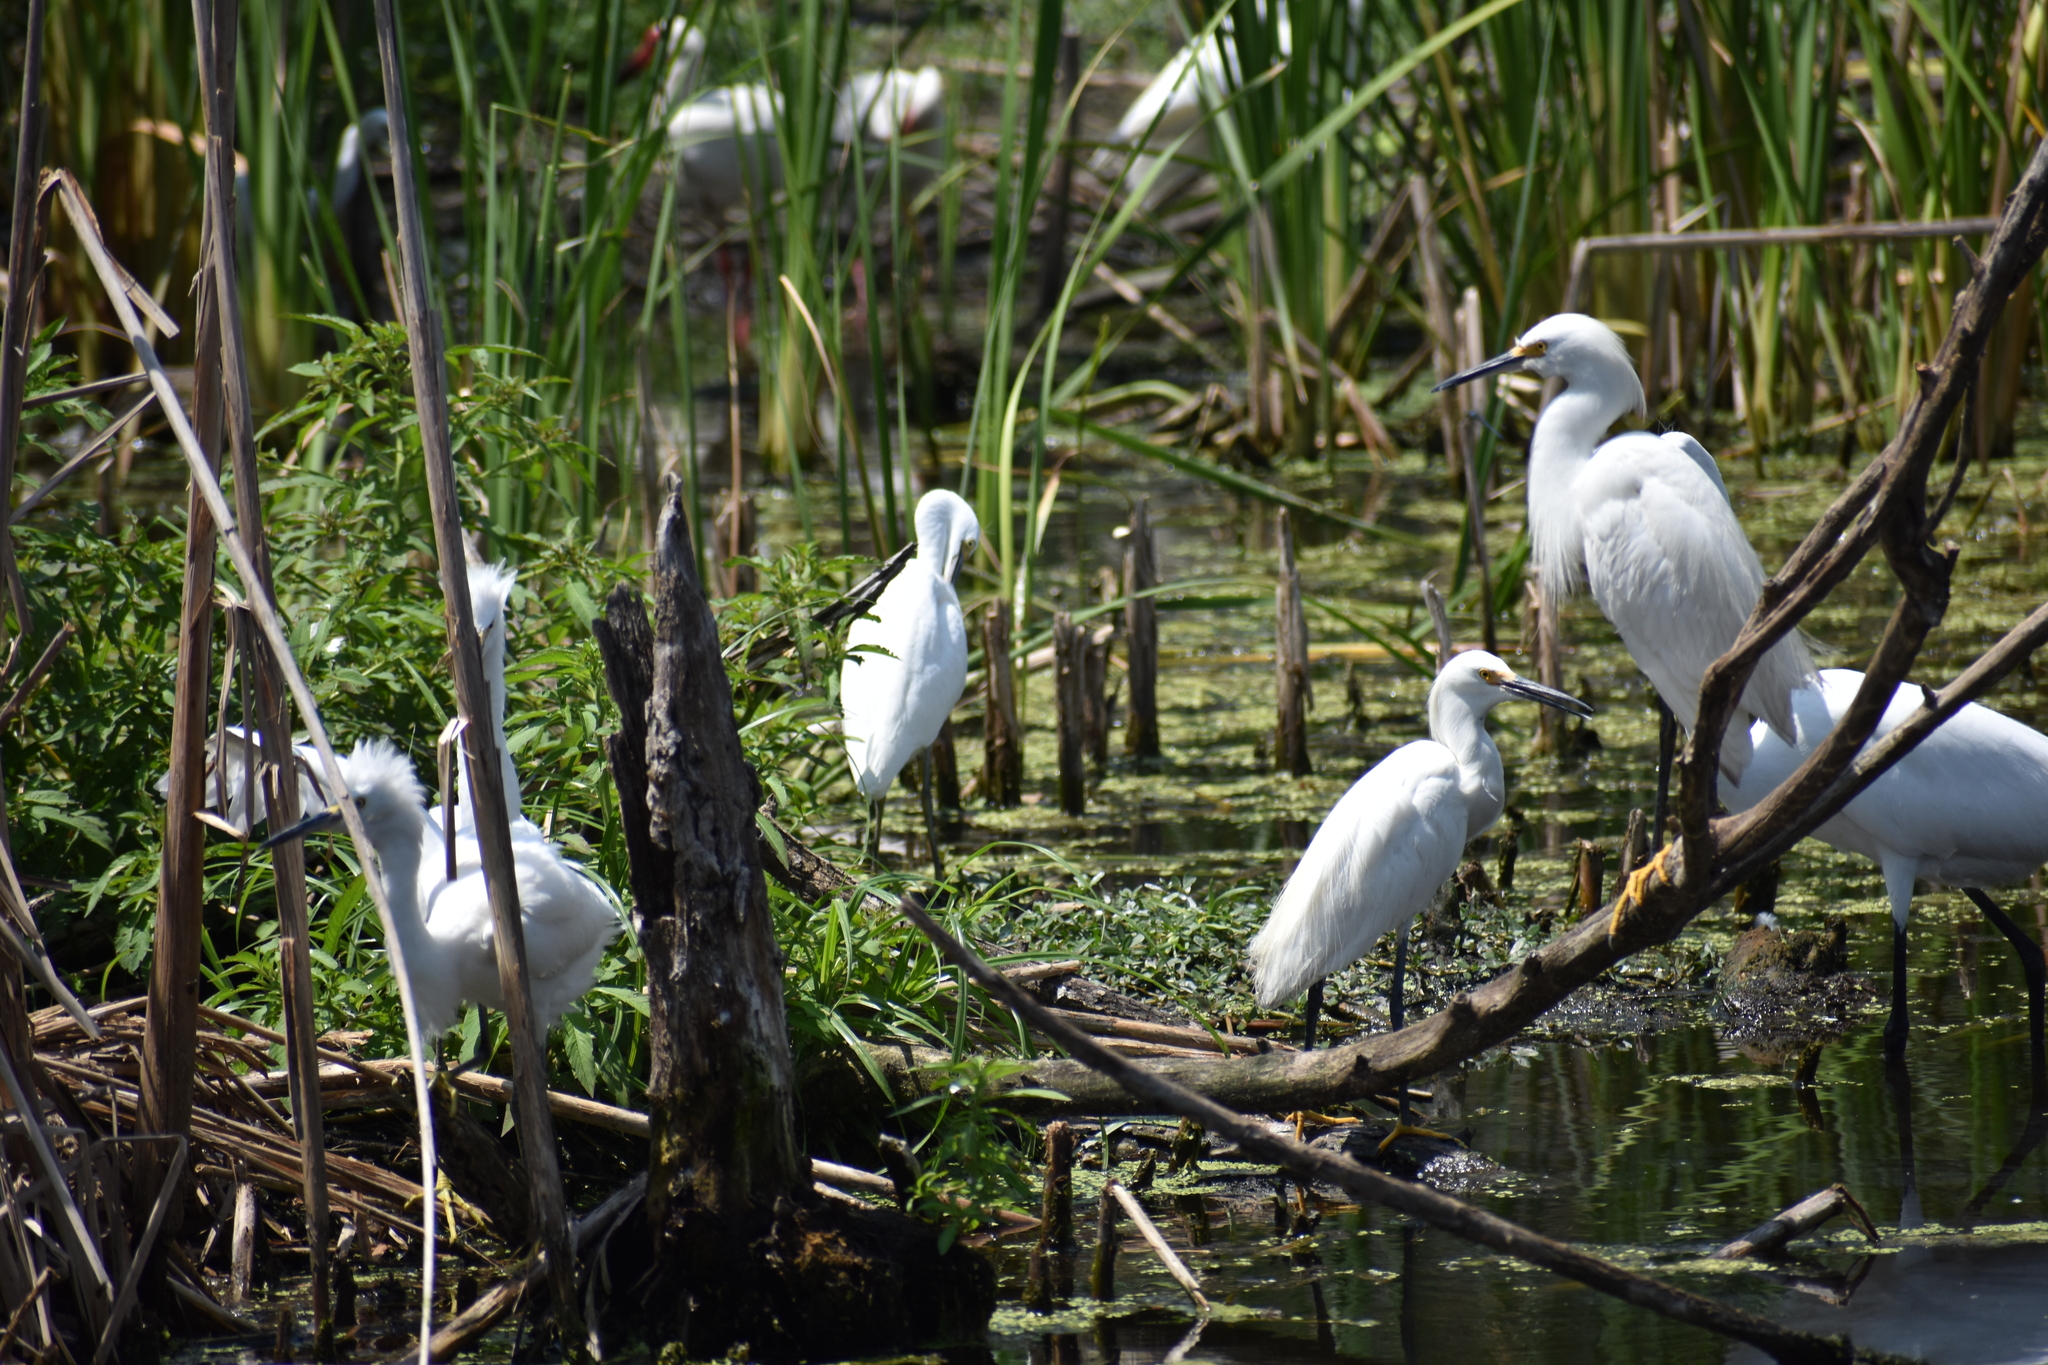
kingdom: Animalia
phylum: Chordata
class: Aves
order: Pelecaniformes
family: Threskiornithidae
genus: Eudocimus
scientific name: Eudocimus albus
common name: White ibis
